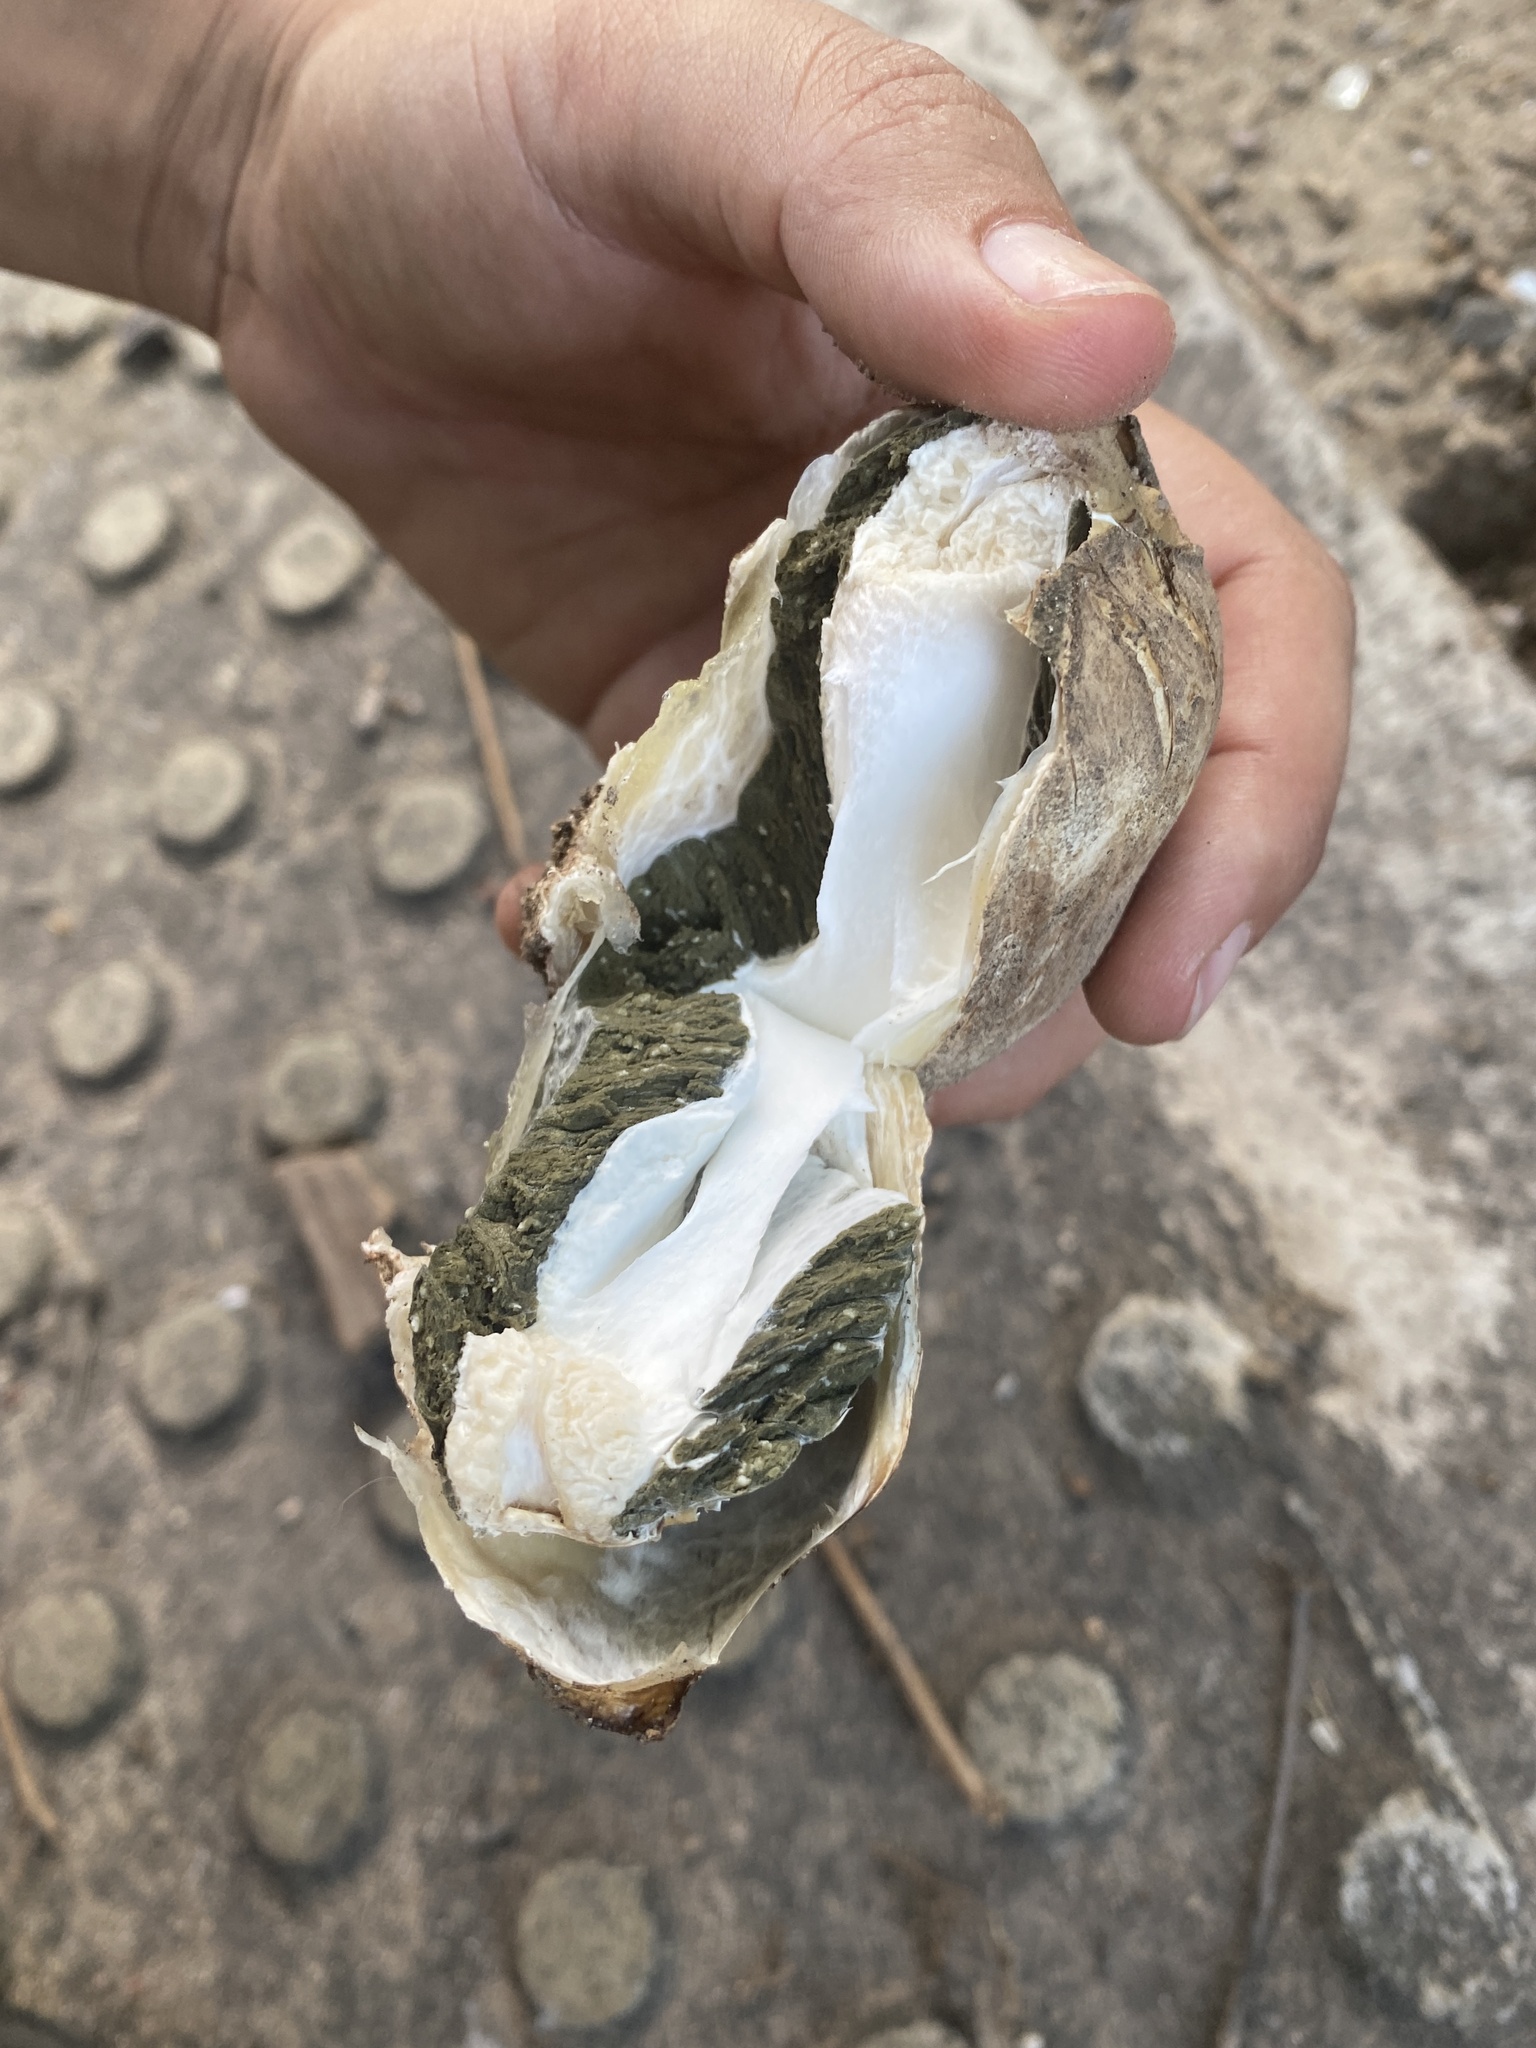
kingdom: Fungi
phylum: Basidiomycota
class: Agaricomycetes
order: Phallales
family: Phallaceae
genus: Itajahya
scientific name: Itajahya galericulata
